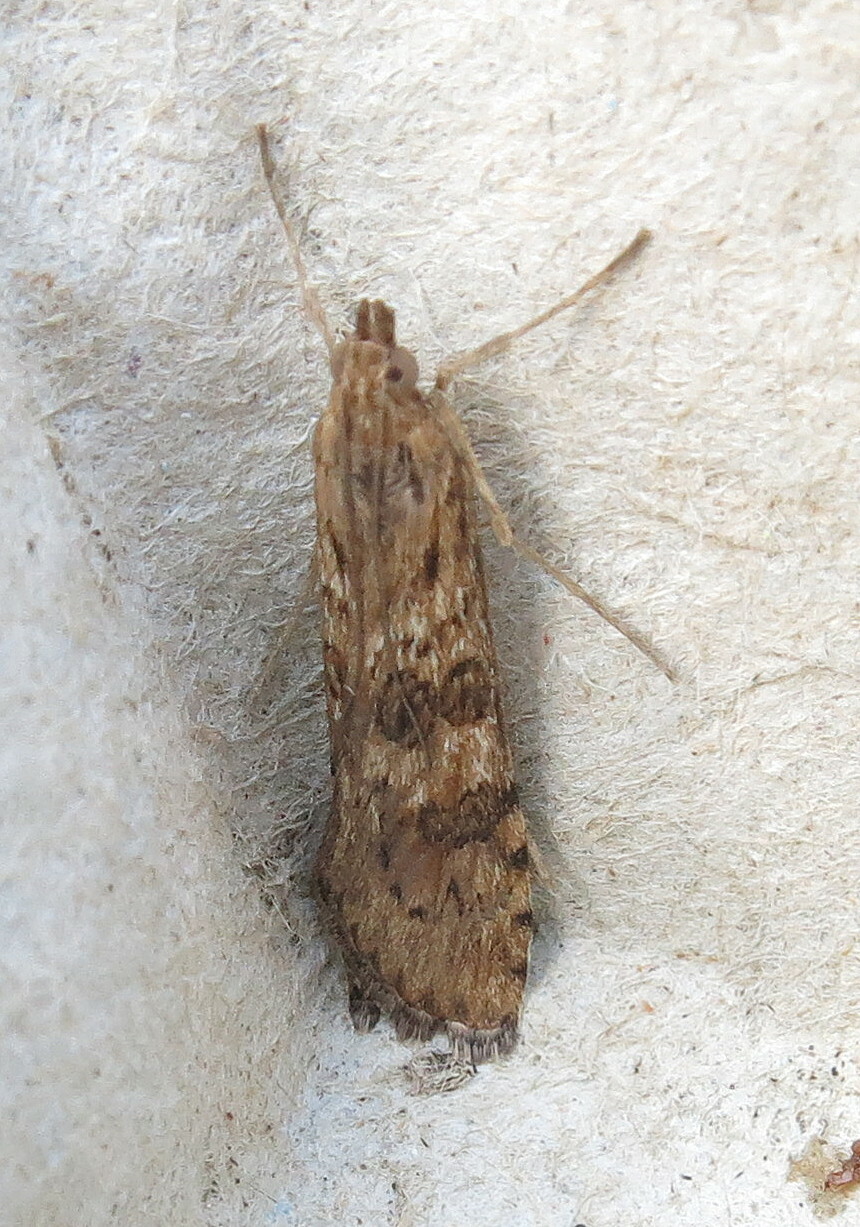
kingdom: Animalia
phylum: Arthropoda
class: Insecta
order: Lepidoptera
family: Crambidae
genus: Nomophila
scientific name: Nomophila noctuella
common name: Rush veneer
